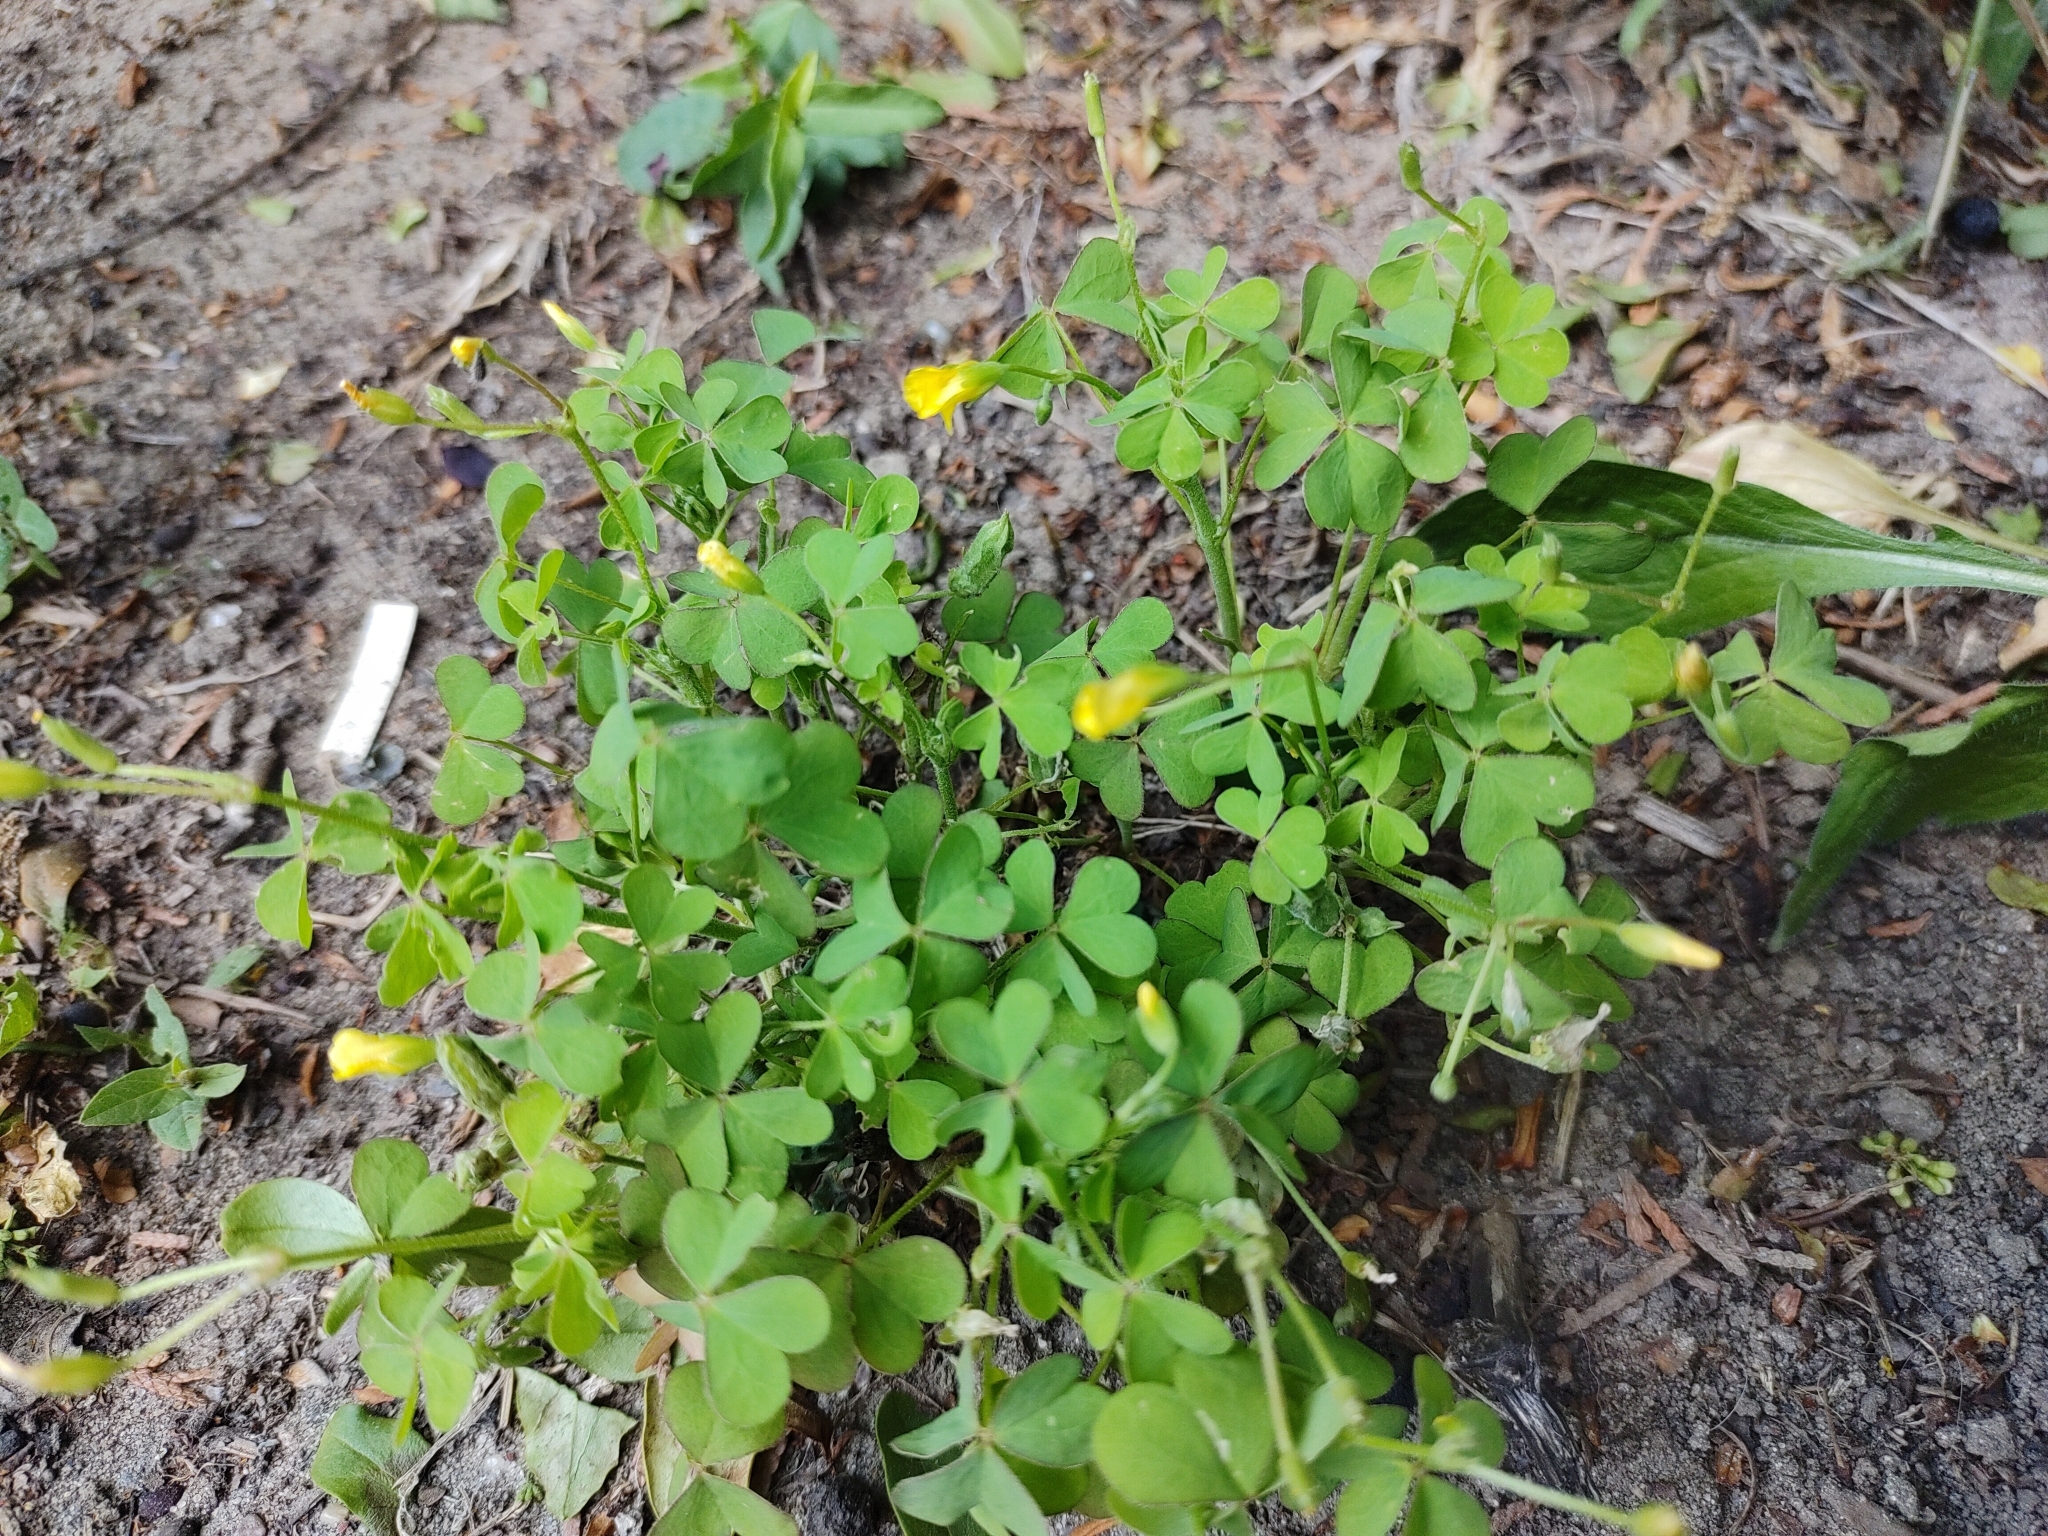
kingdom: Plantae
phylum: Tracheophyta
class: Magnoliopsida
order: Oxalidales
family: Oxalidaceae
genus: Oxalis
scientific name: Oxalis stricta
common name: Upright yellow-sorrel
